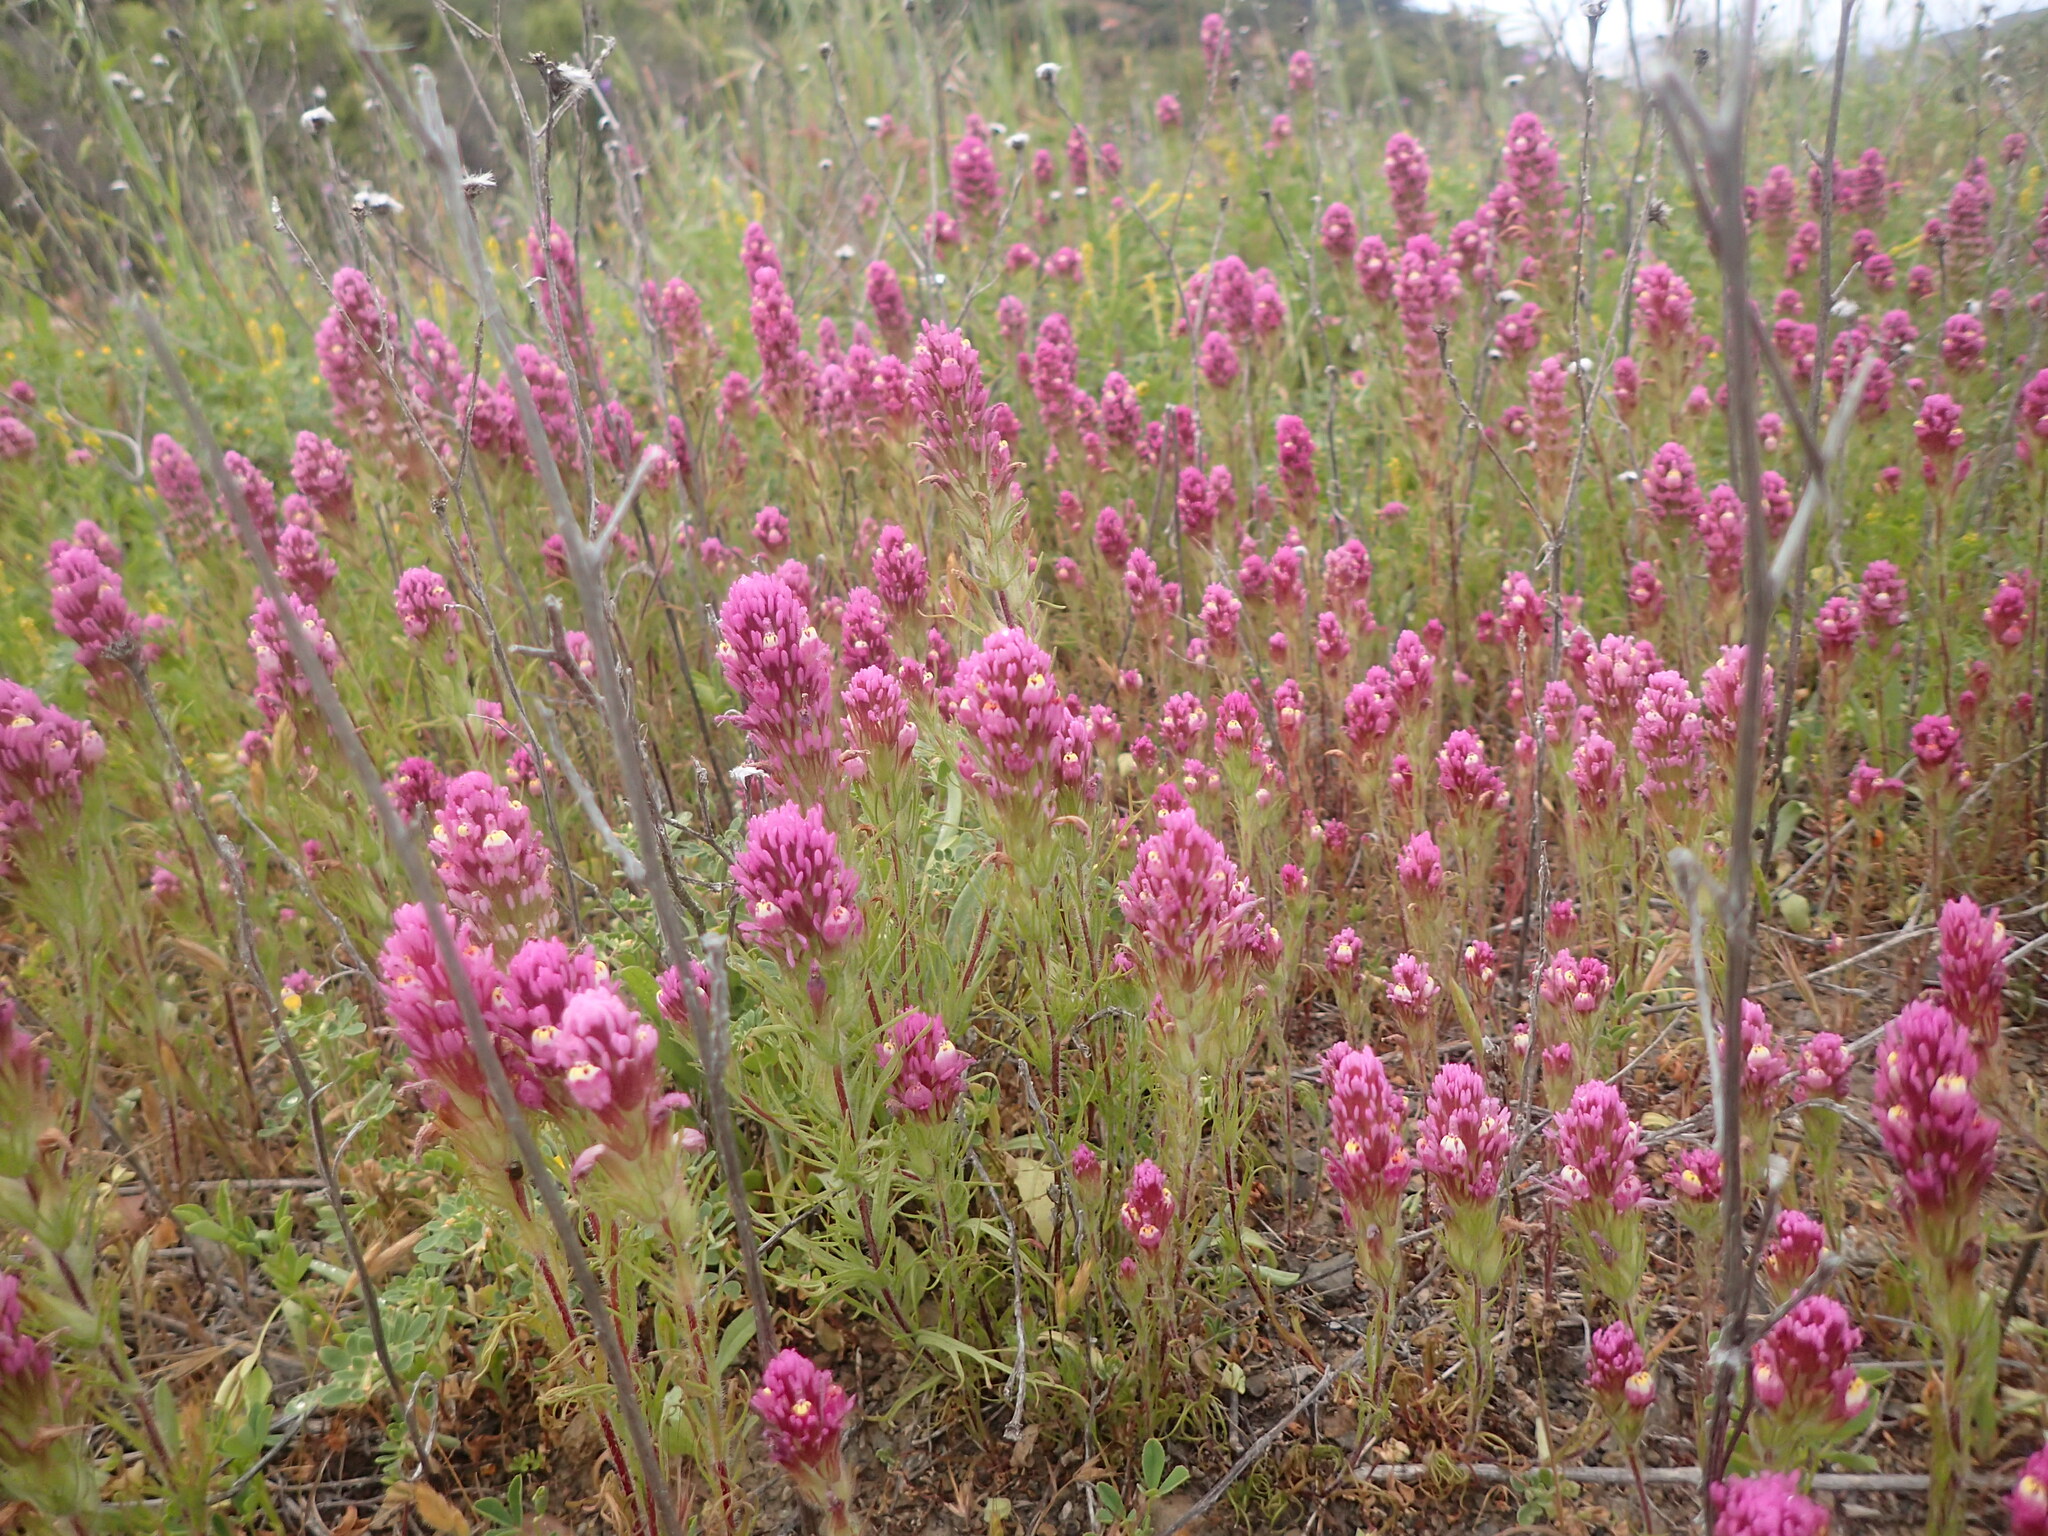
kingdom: Plantae
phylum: Tracheophyta
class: Magnoliopsida
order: Lamiales
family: Orobanchaceae
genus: Castilleja
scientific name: Castilleja exserta
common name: Purple owl-clover
